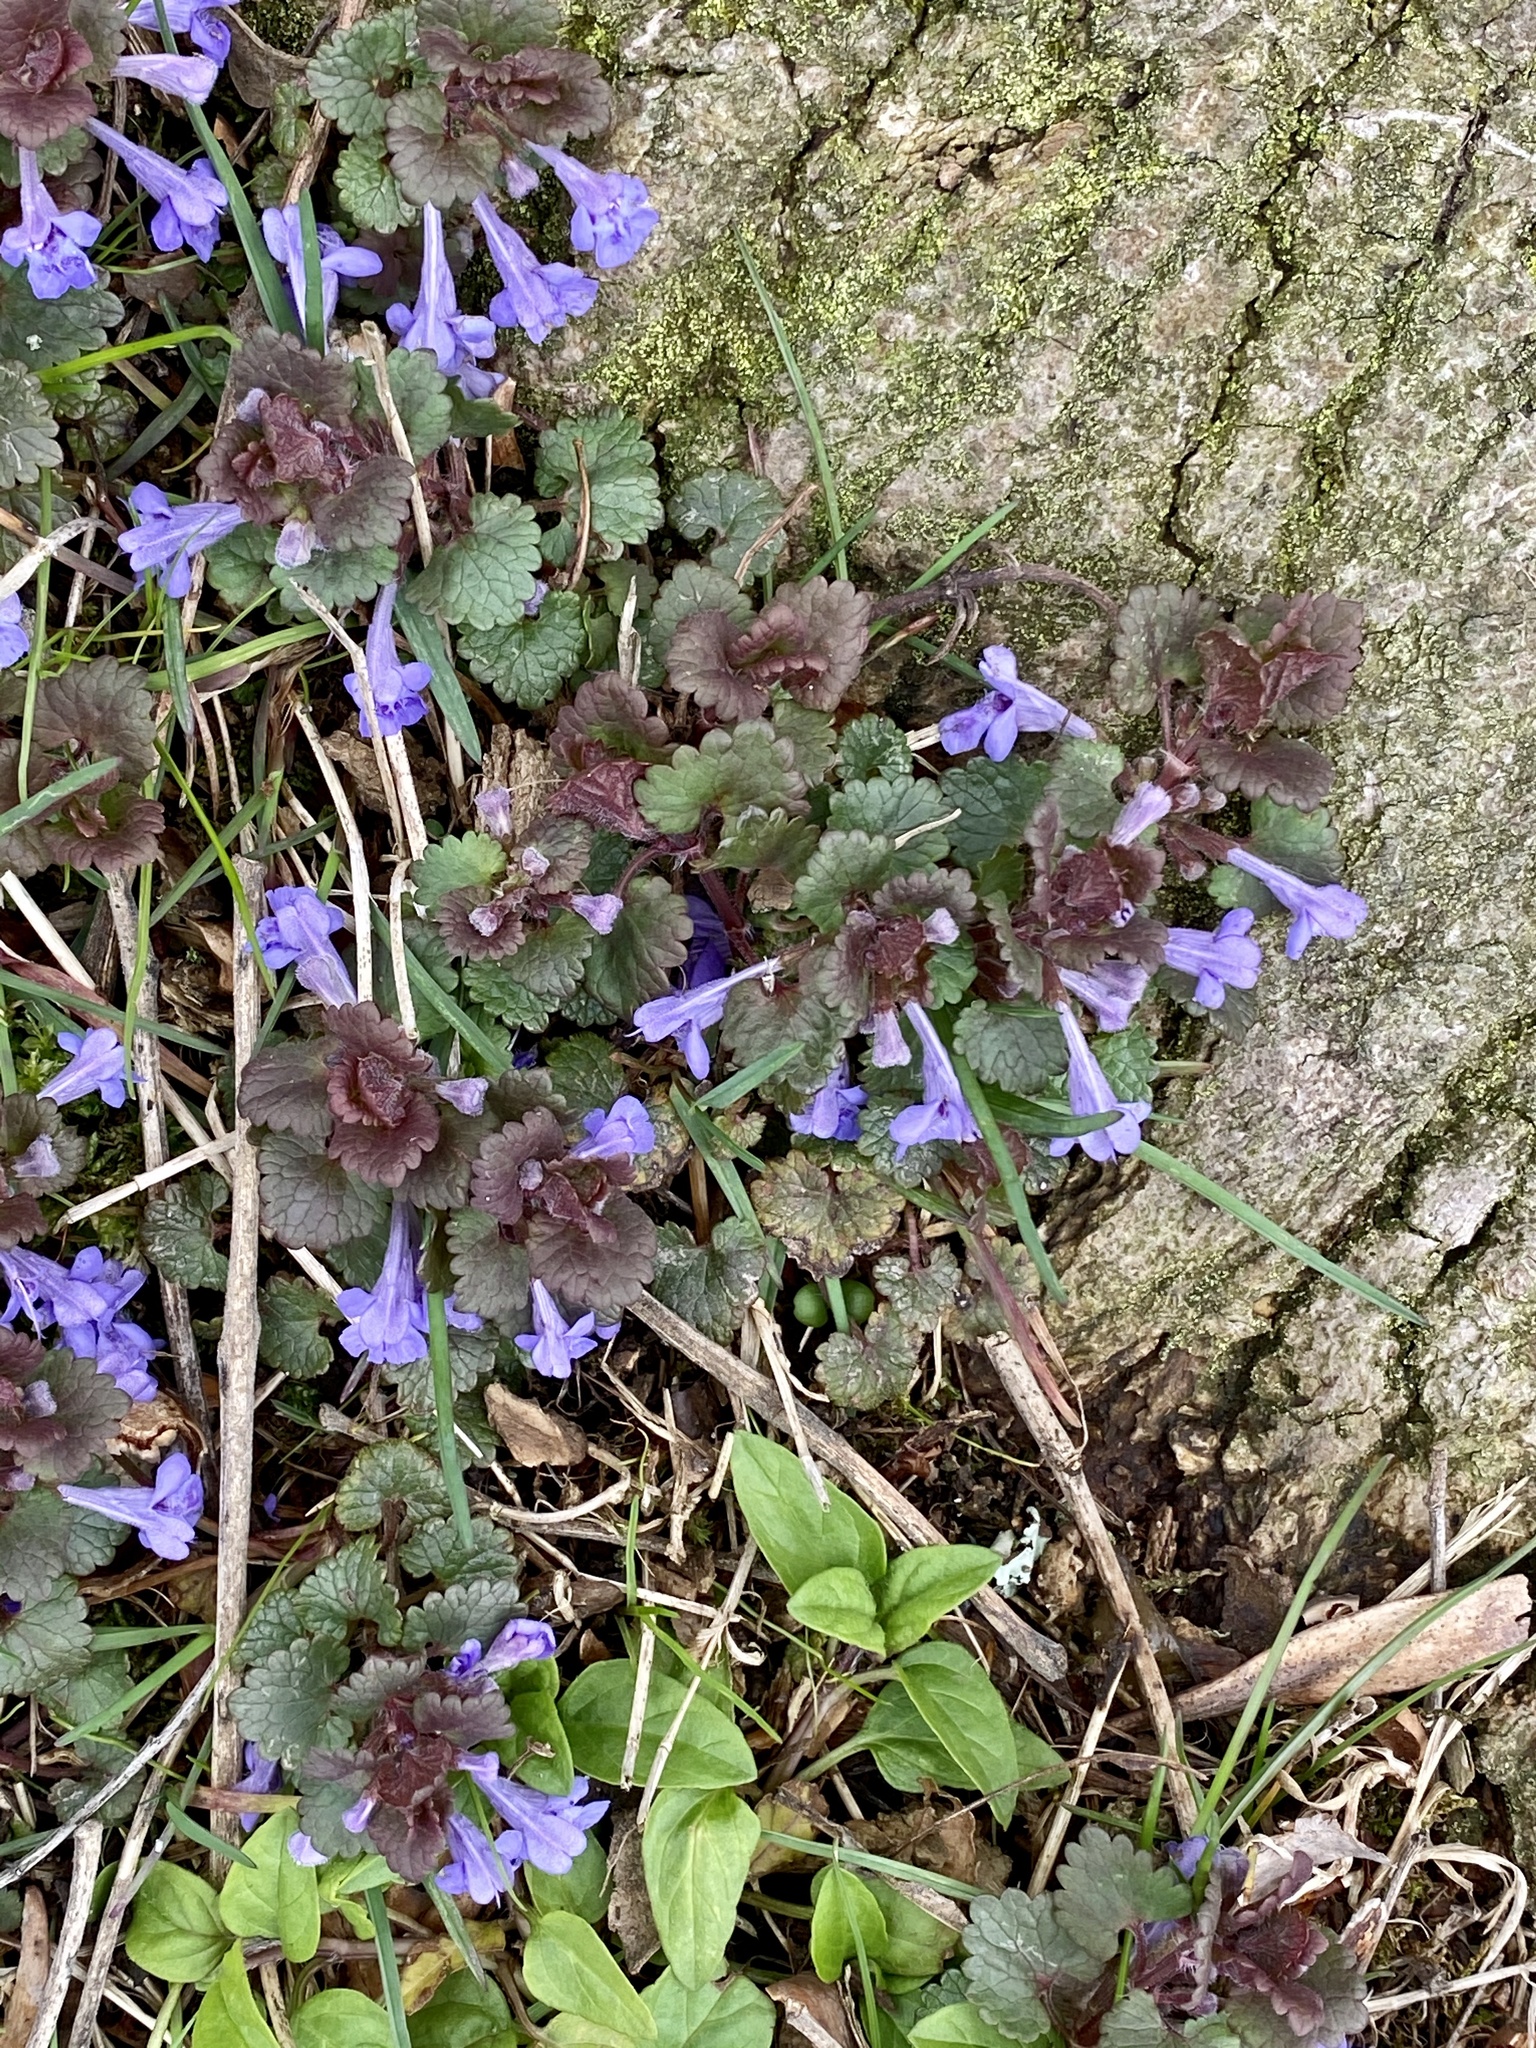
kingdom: Plantae
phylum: Tracheophyta
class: Magnoliopsida
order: Lamiales
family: Lamiaceae
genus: Glechoma
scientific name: Glechoma hederacea
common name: Ground ivy
